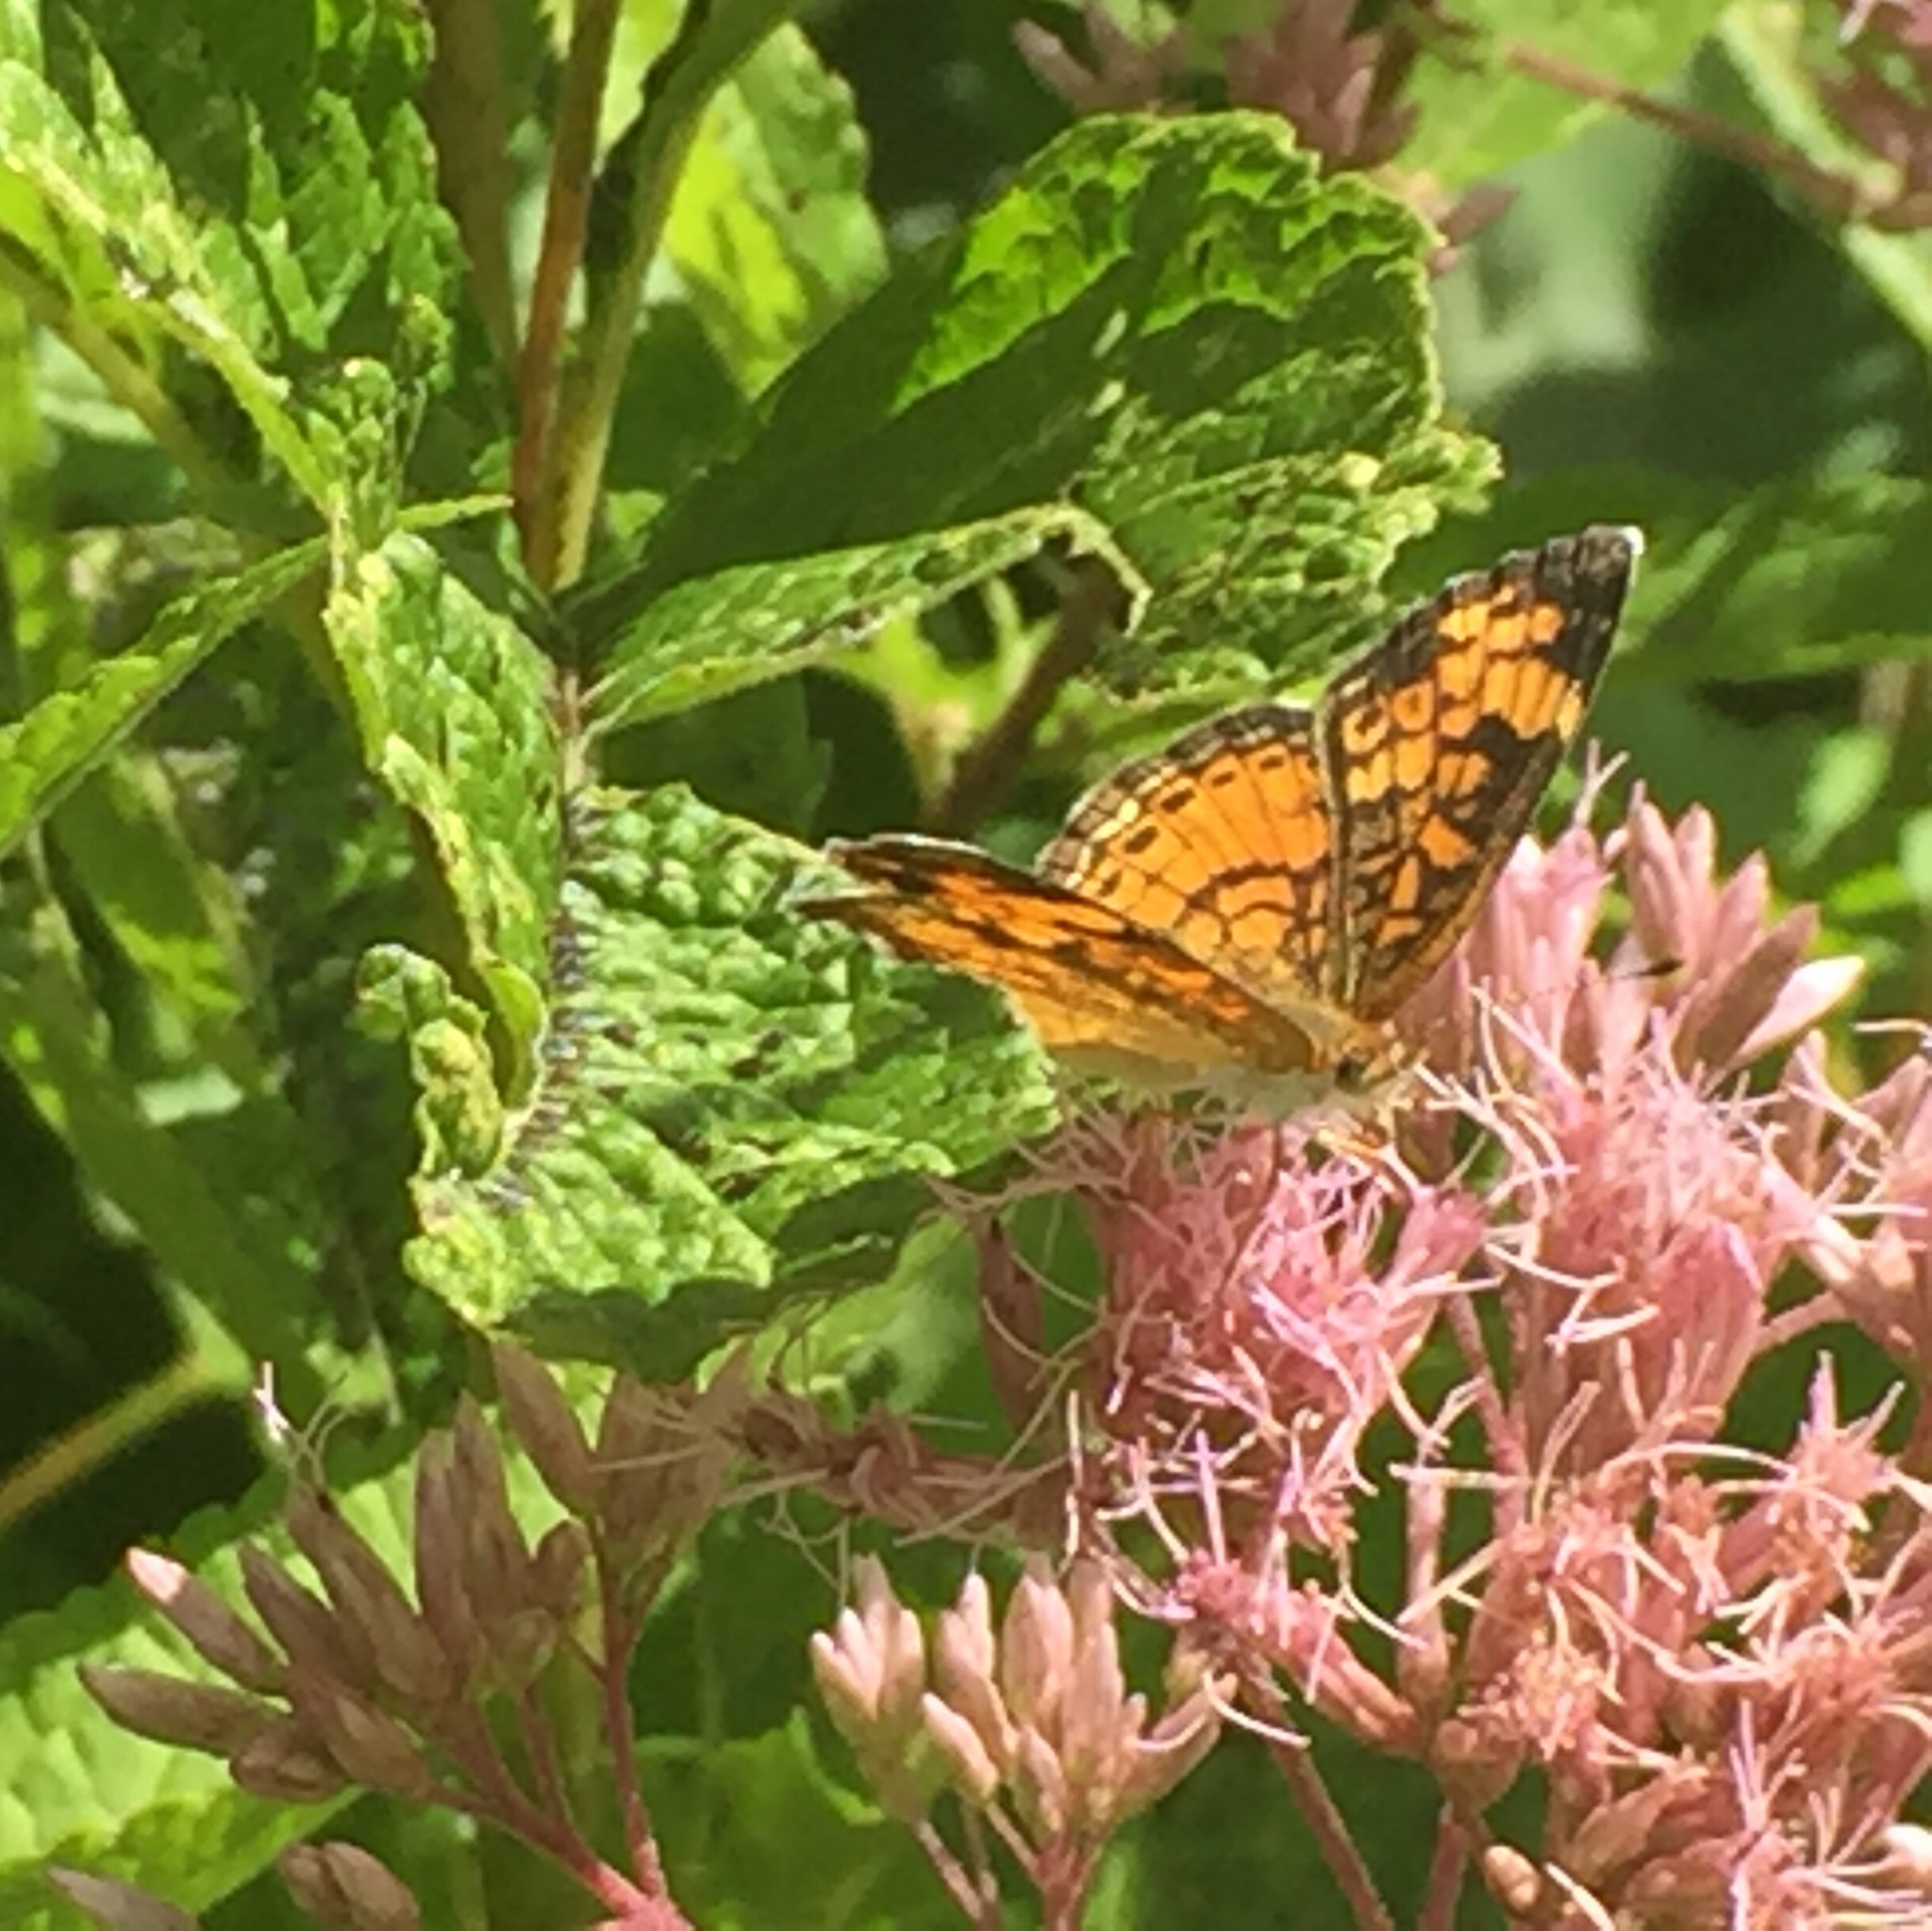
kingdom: Animalia
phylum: Arthropoda
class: Insecta
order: Lepidoptera
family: Nymphalidae
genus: Phyciodes
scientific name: Phyciodes tharos
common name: Pearl crescent
